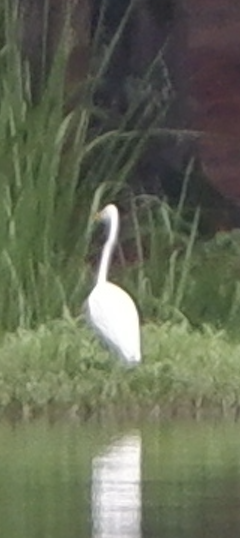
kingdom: Animalia
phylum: Chordata
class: Aves
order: Pelecaniformes
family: Ardeidae
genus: Ardea
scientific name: Ardea alba
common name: Great egret
